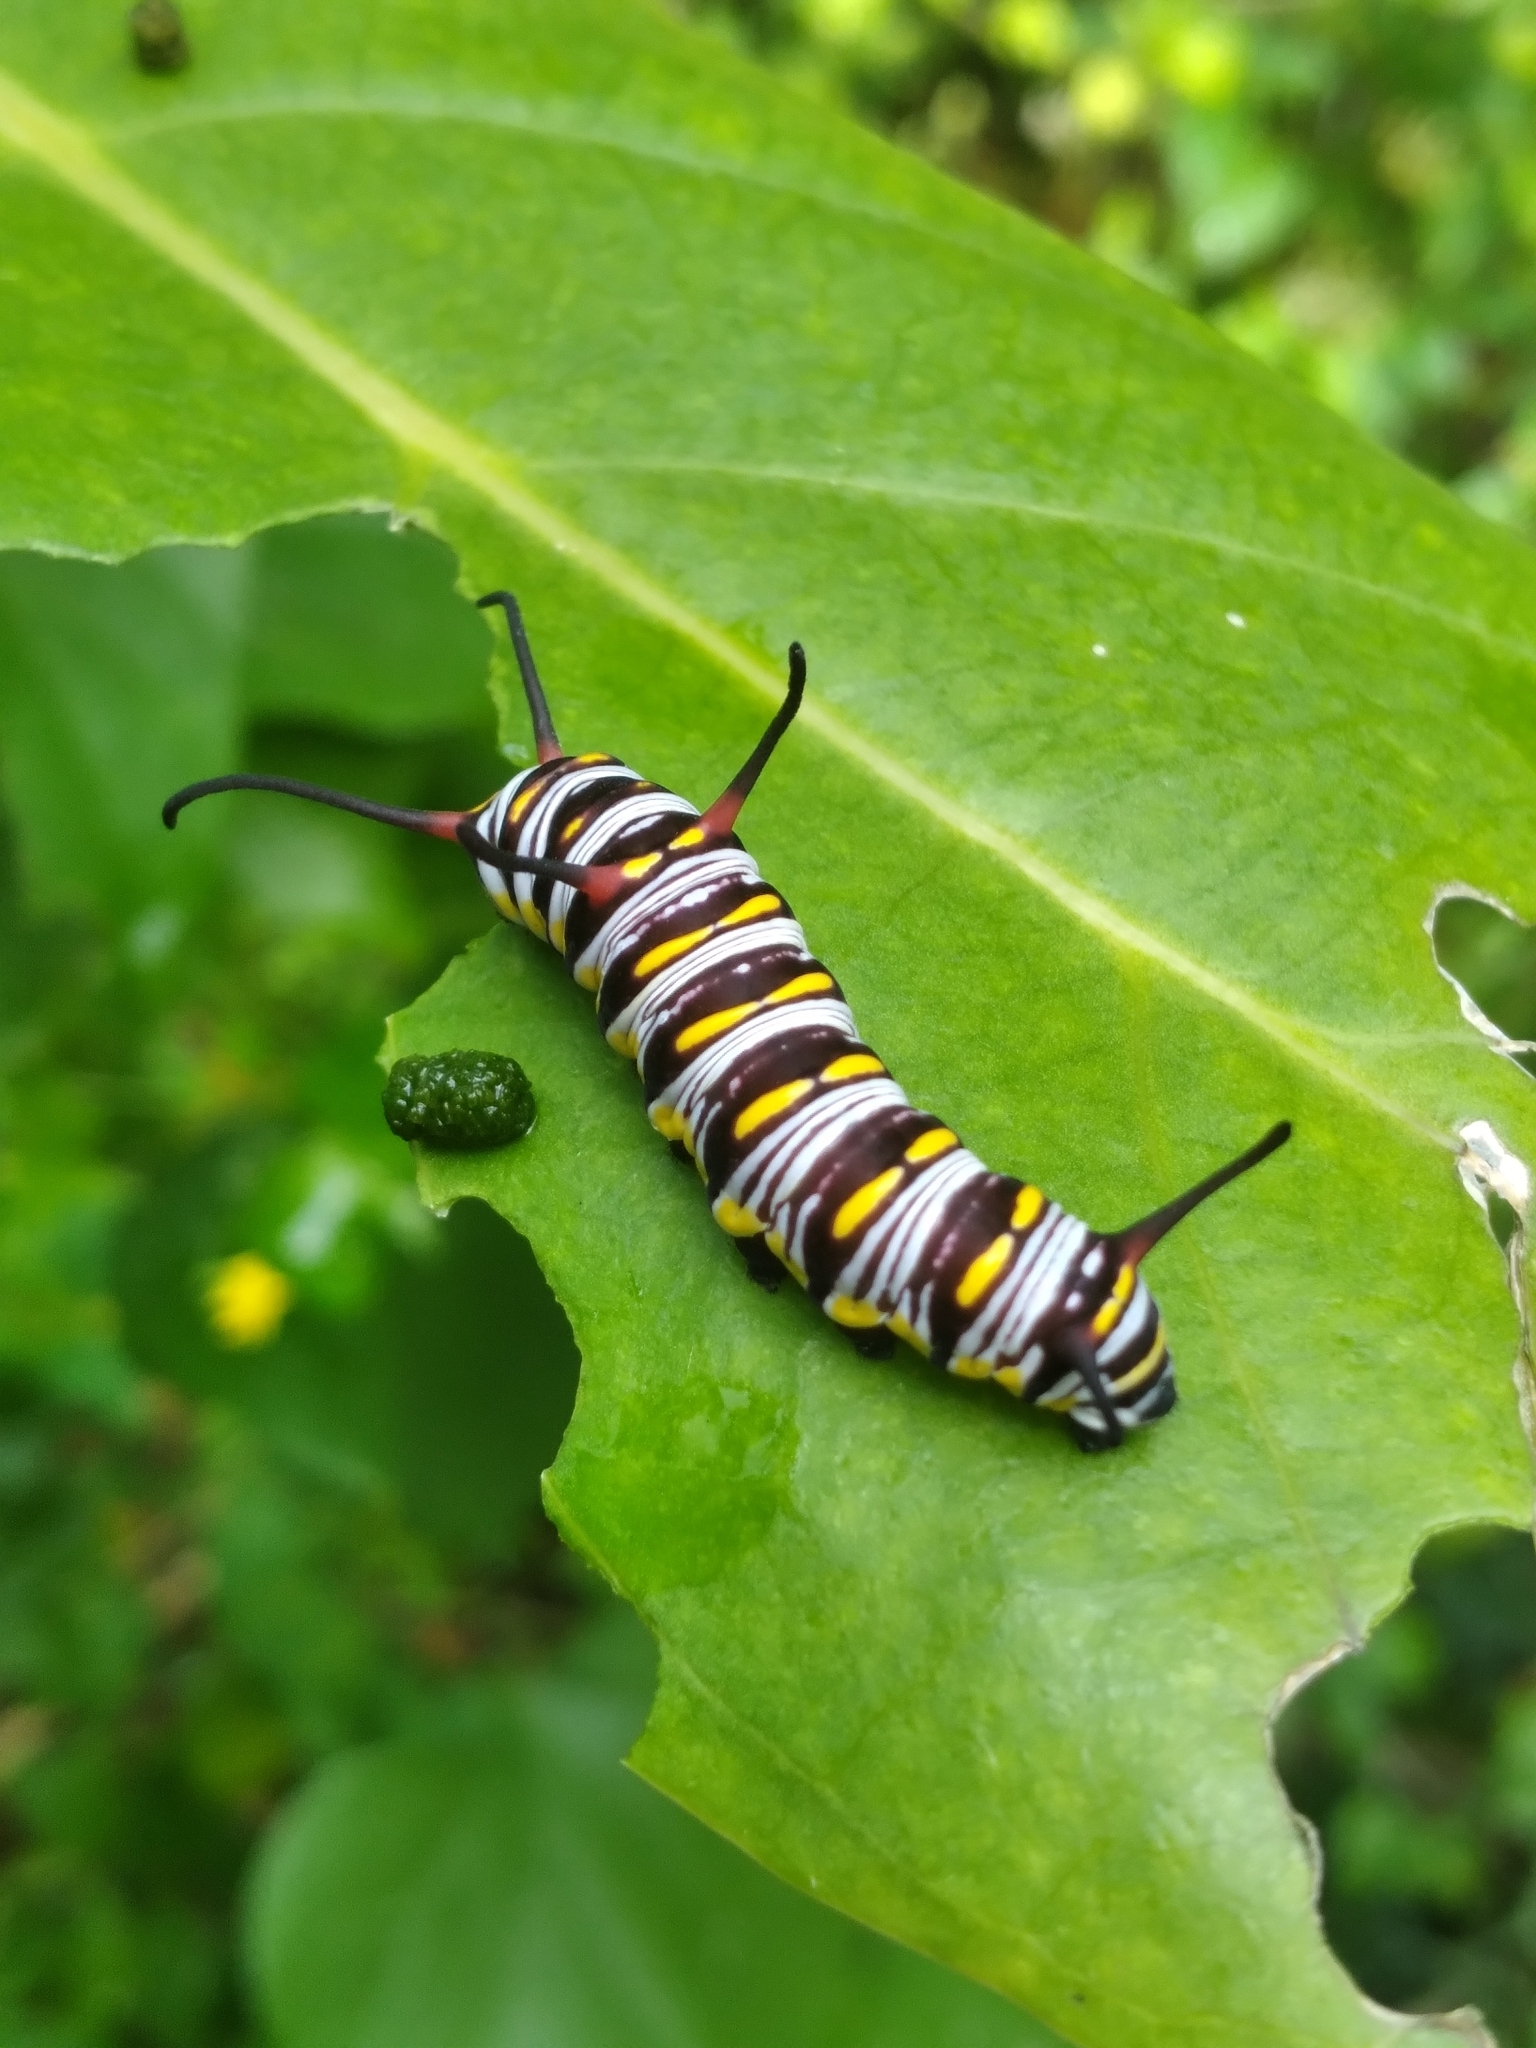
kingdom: Animalia
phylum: Arthropoda
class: Insecta
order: Lepidoptera
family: Nymphalidae
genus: Danaus
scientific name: Danaus gilippus
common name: Queen
